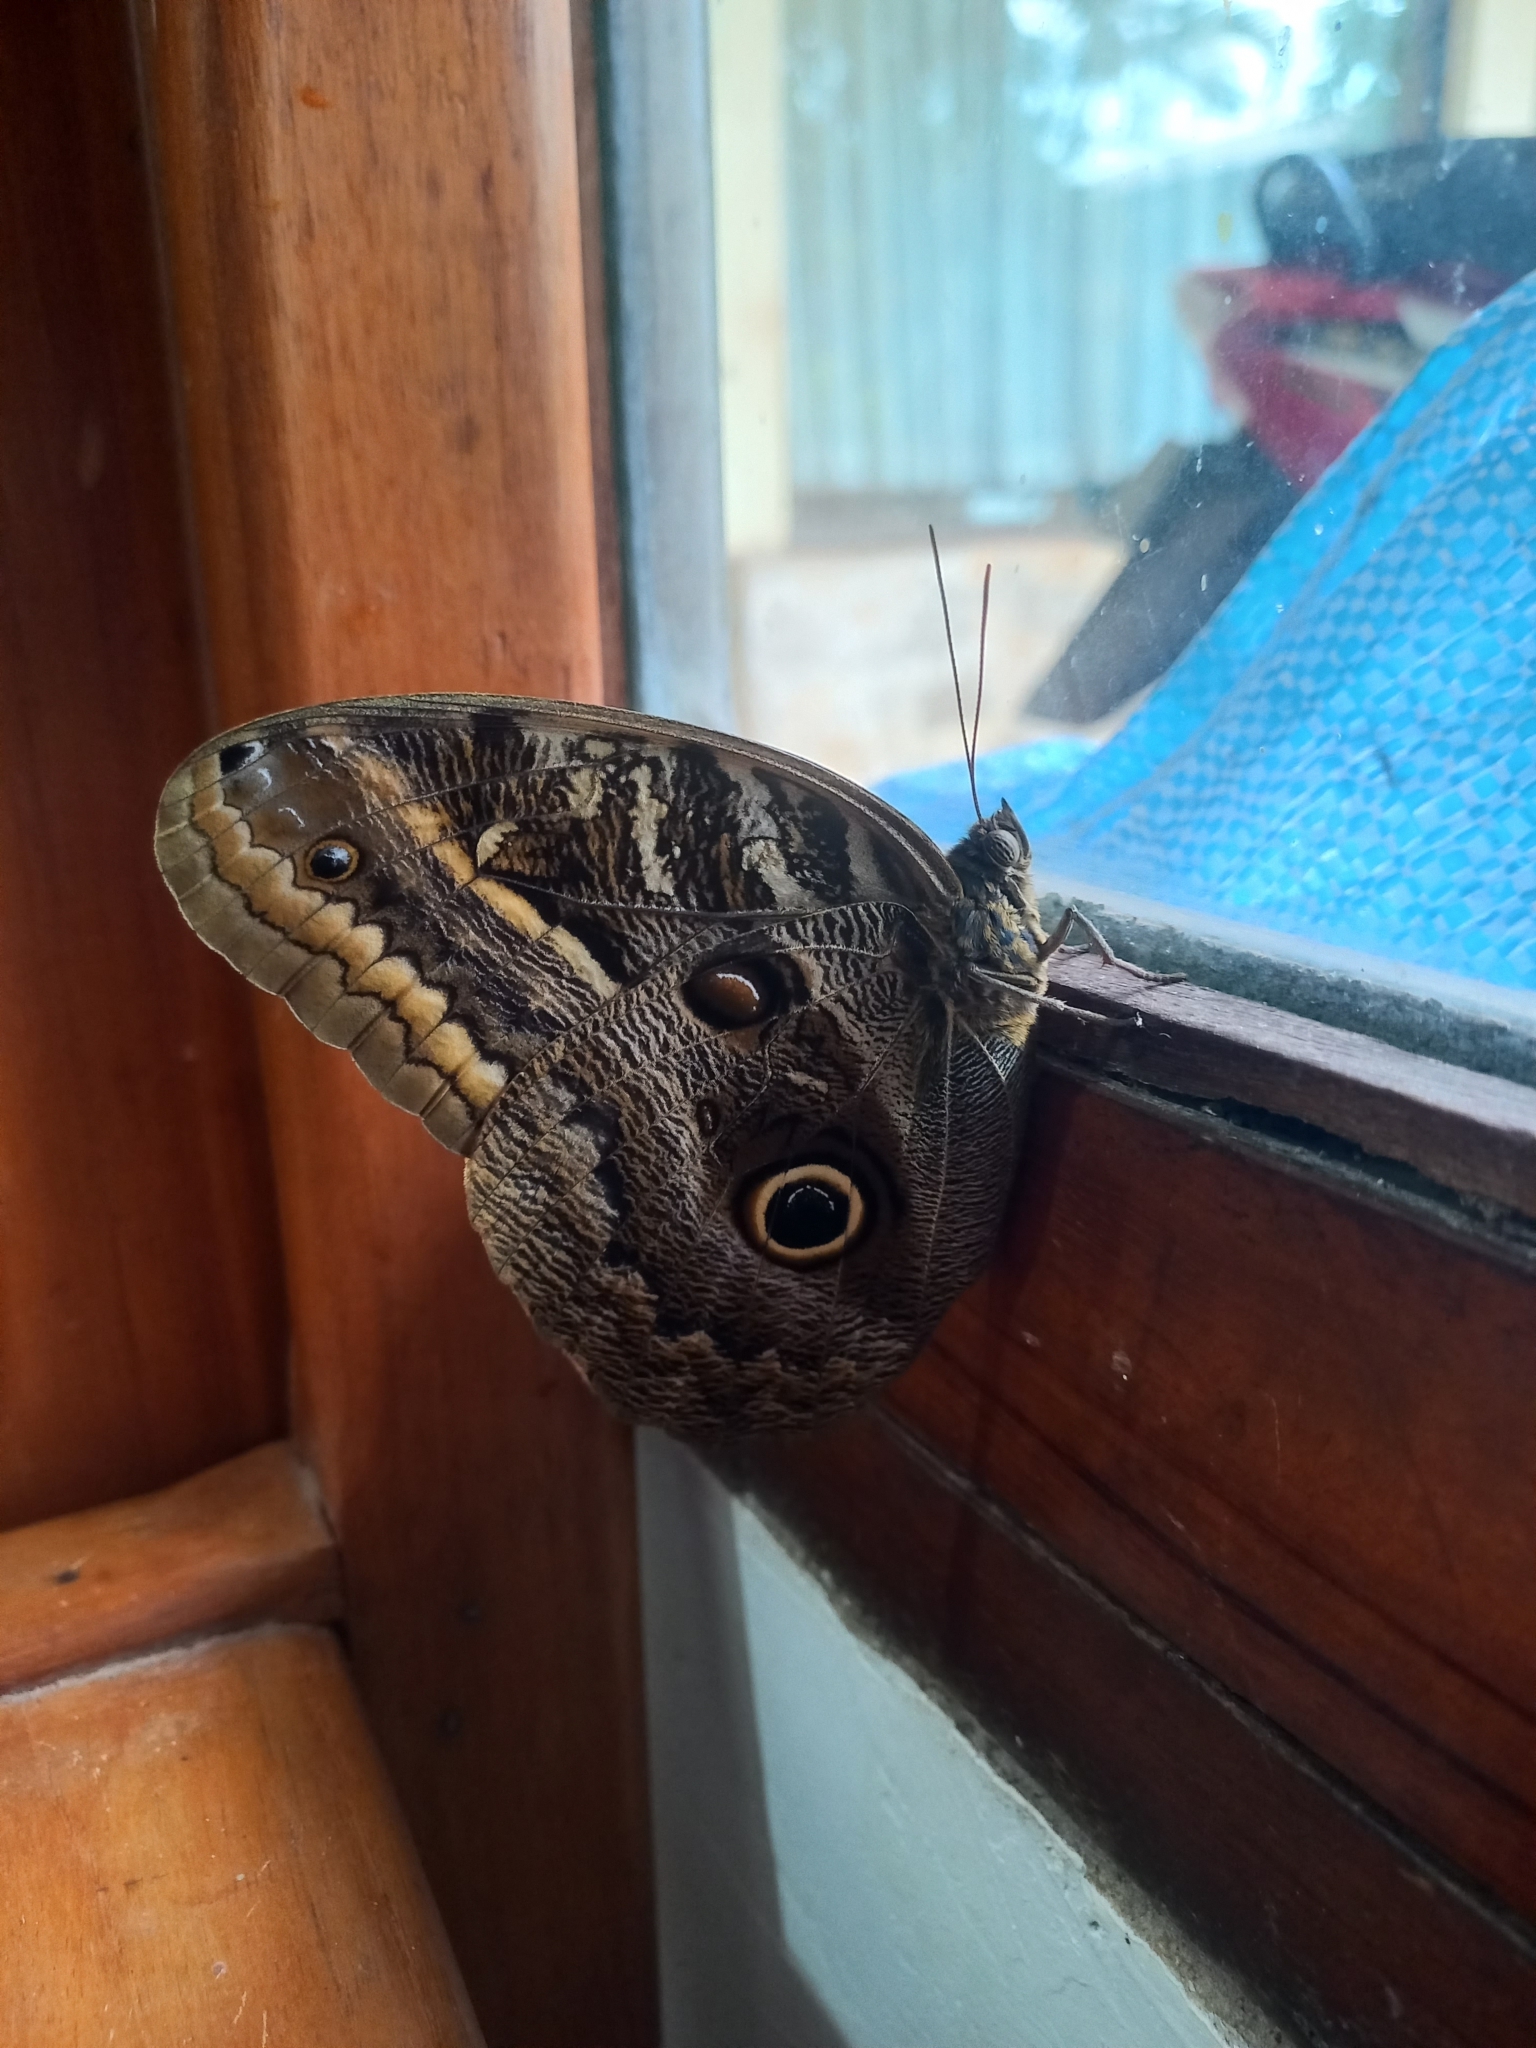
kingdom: Animalia
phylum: Arthropoda
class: Insecta
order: Lepidoptera
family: Nymphalidae
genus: Caligo
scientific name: Caligo illioneus
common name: Dusky owl-butterfly
